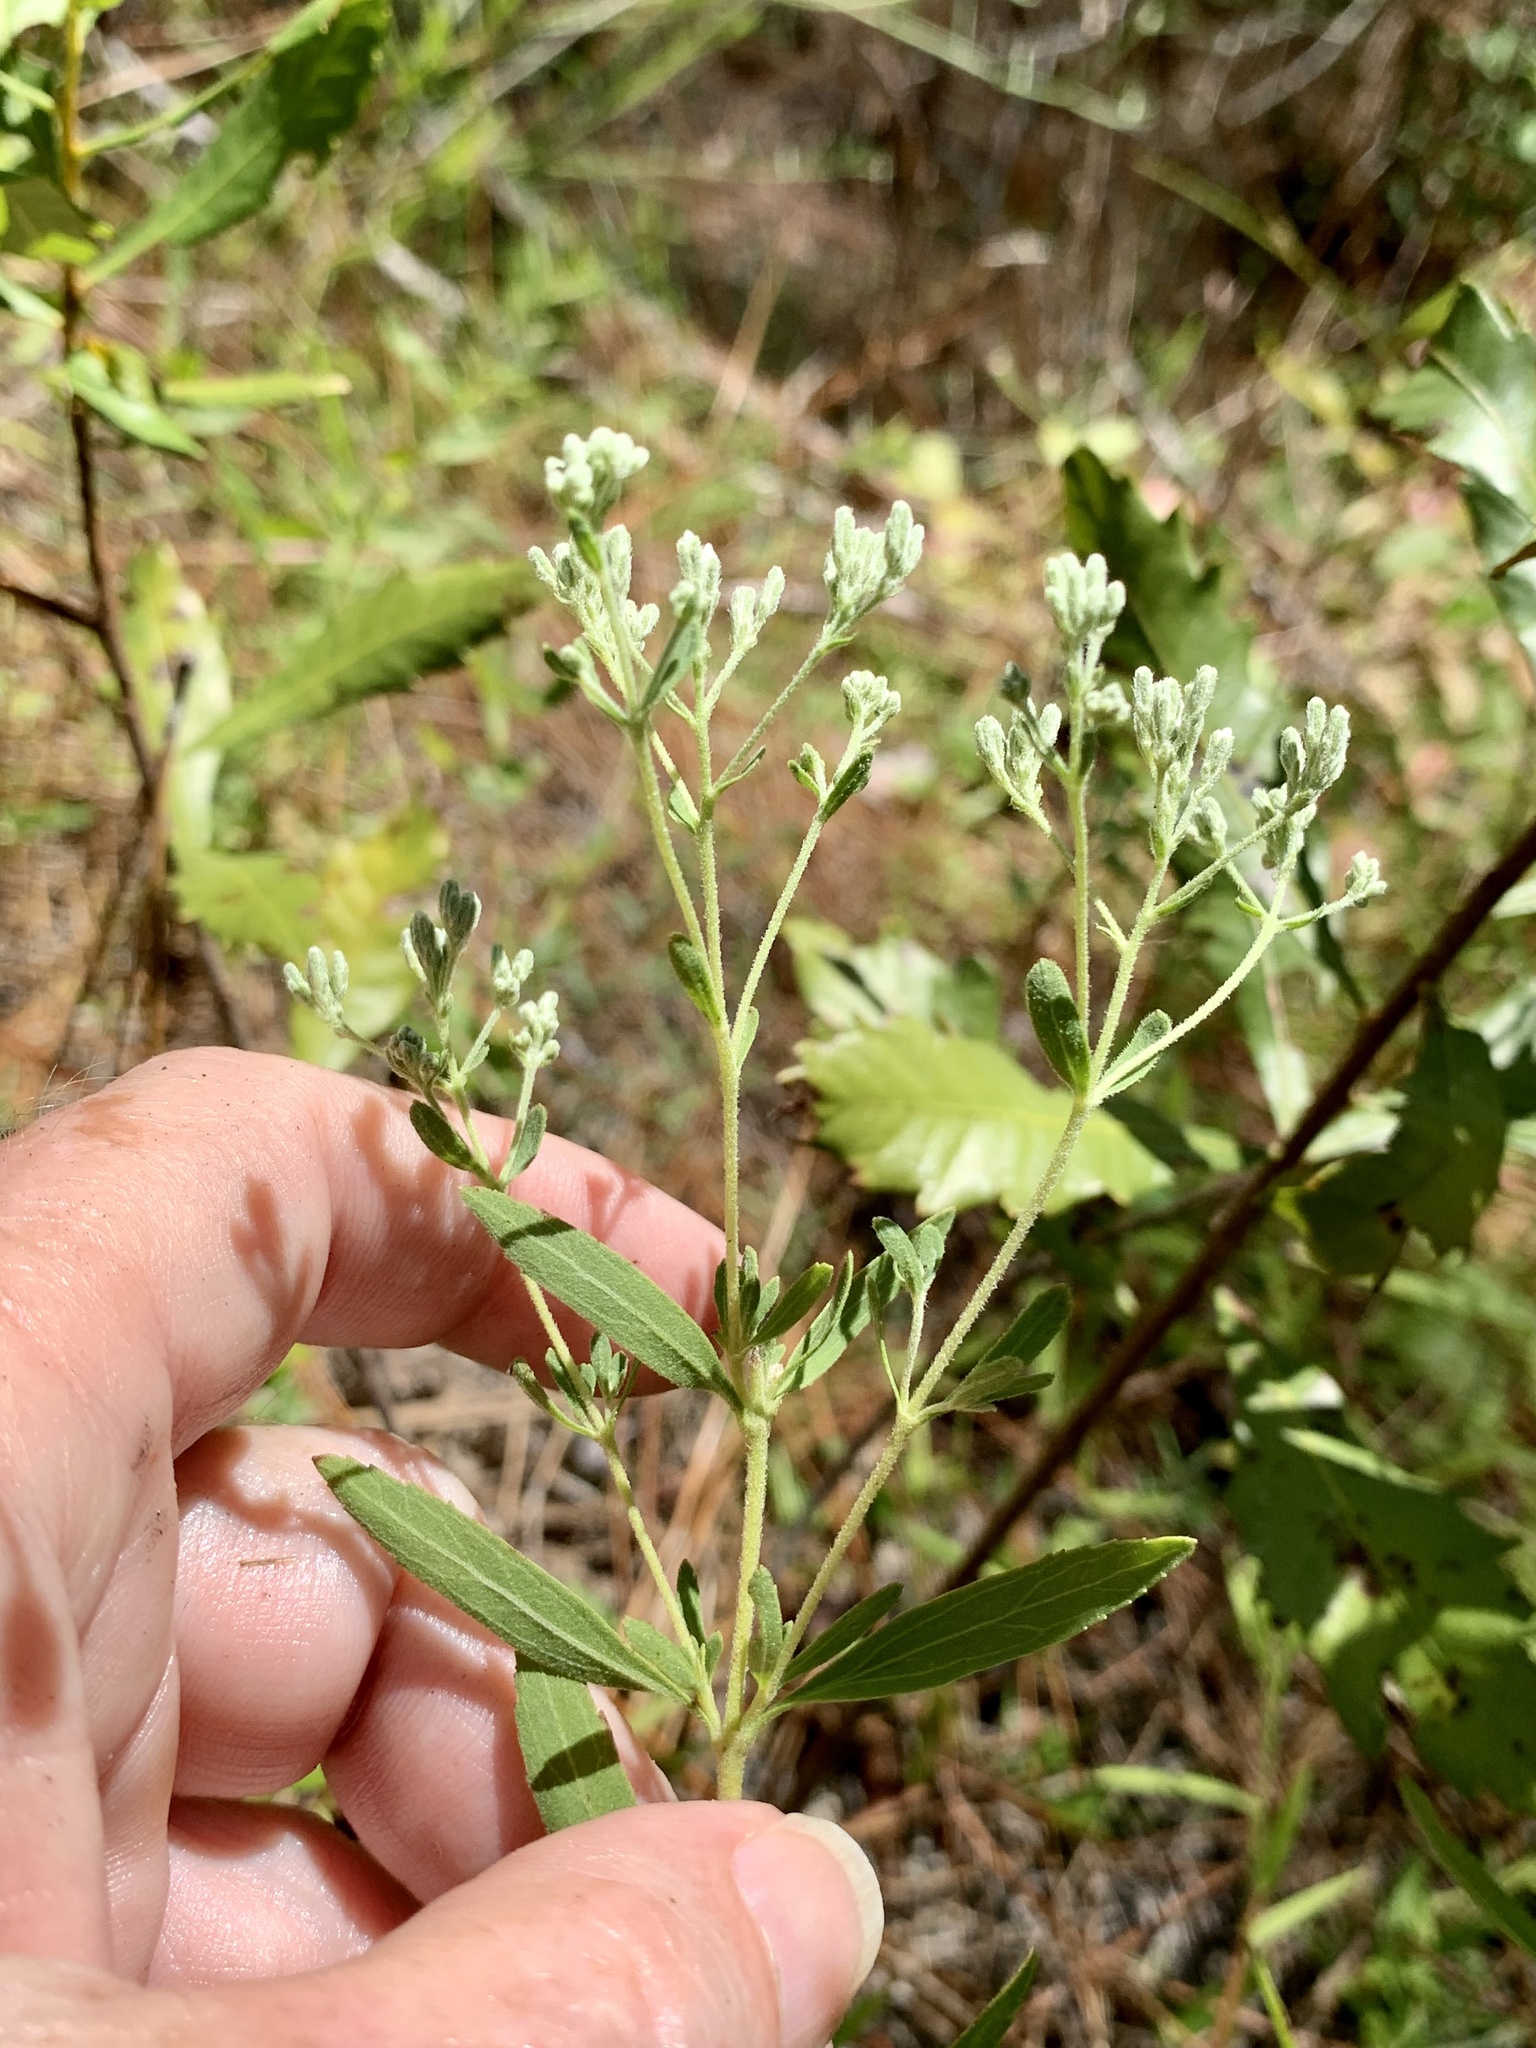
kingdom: Plantae
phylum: Tracheophyta
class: Magnoliopsida
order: Asterales
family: Asteraceae
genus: Eupatorium
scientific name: Eupatorium semiserratum
